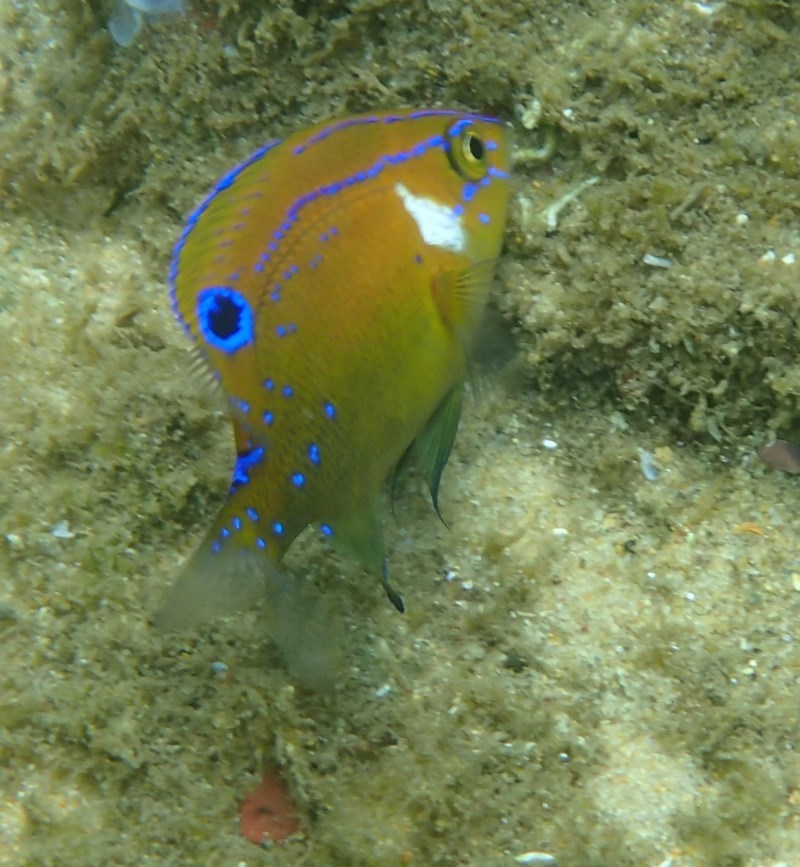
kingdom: Animalia
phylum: Chordata
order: Perciformes
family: Pomacentridae
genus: Parma
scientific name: Parma microlepis
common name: White-ear
